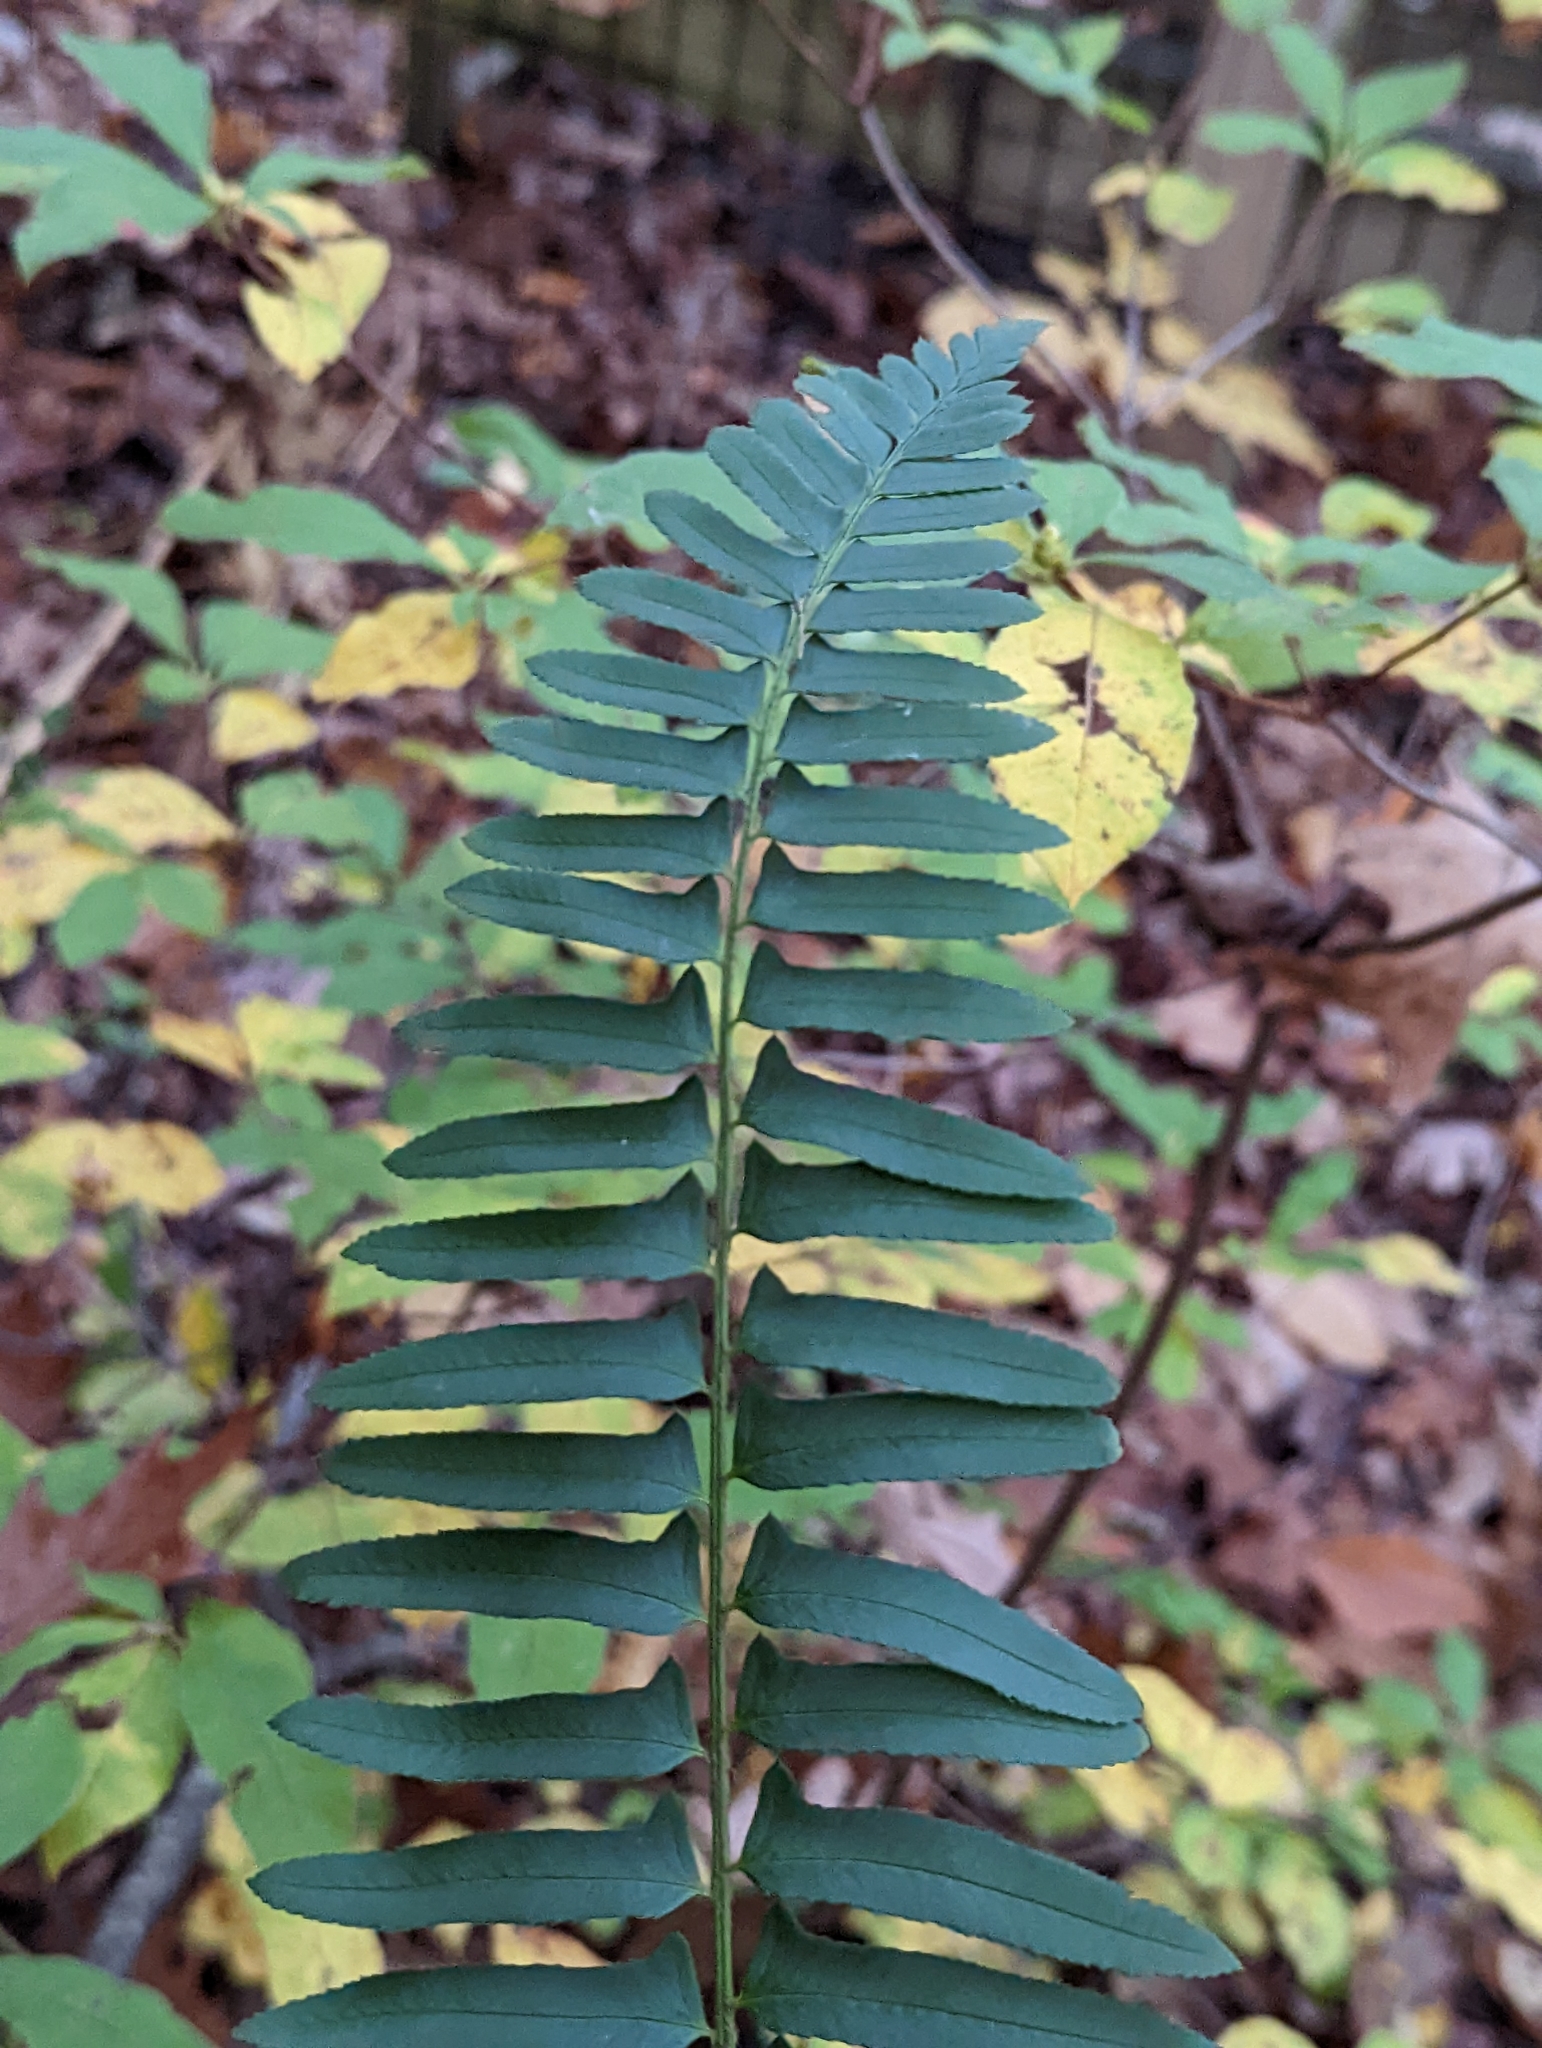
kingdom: Plantae
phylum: Tracheophyta
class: Polypodiopsida
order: Polypodiales
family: Dryopteridaceae
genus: Polystichum
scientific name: Polystichum acrostichoides
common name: Christmas fern
